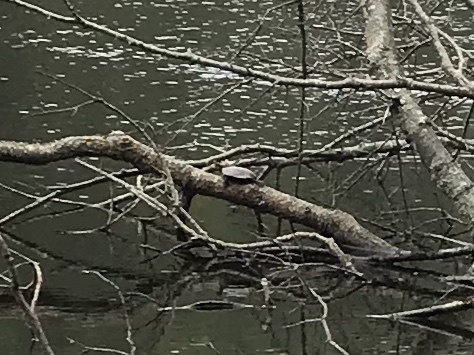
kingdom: Animalia
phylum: Chordata
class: Testudines
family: Emydidae
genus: Chrysemys
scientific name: Chrysemys picta
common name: Painted turtle
